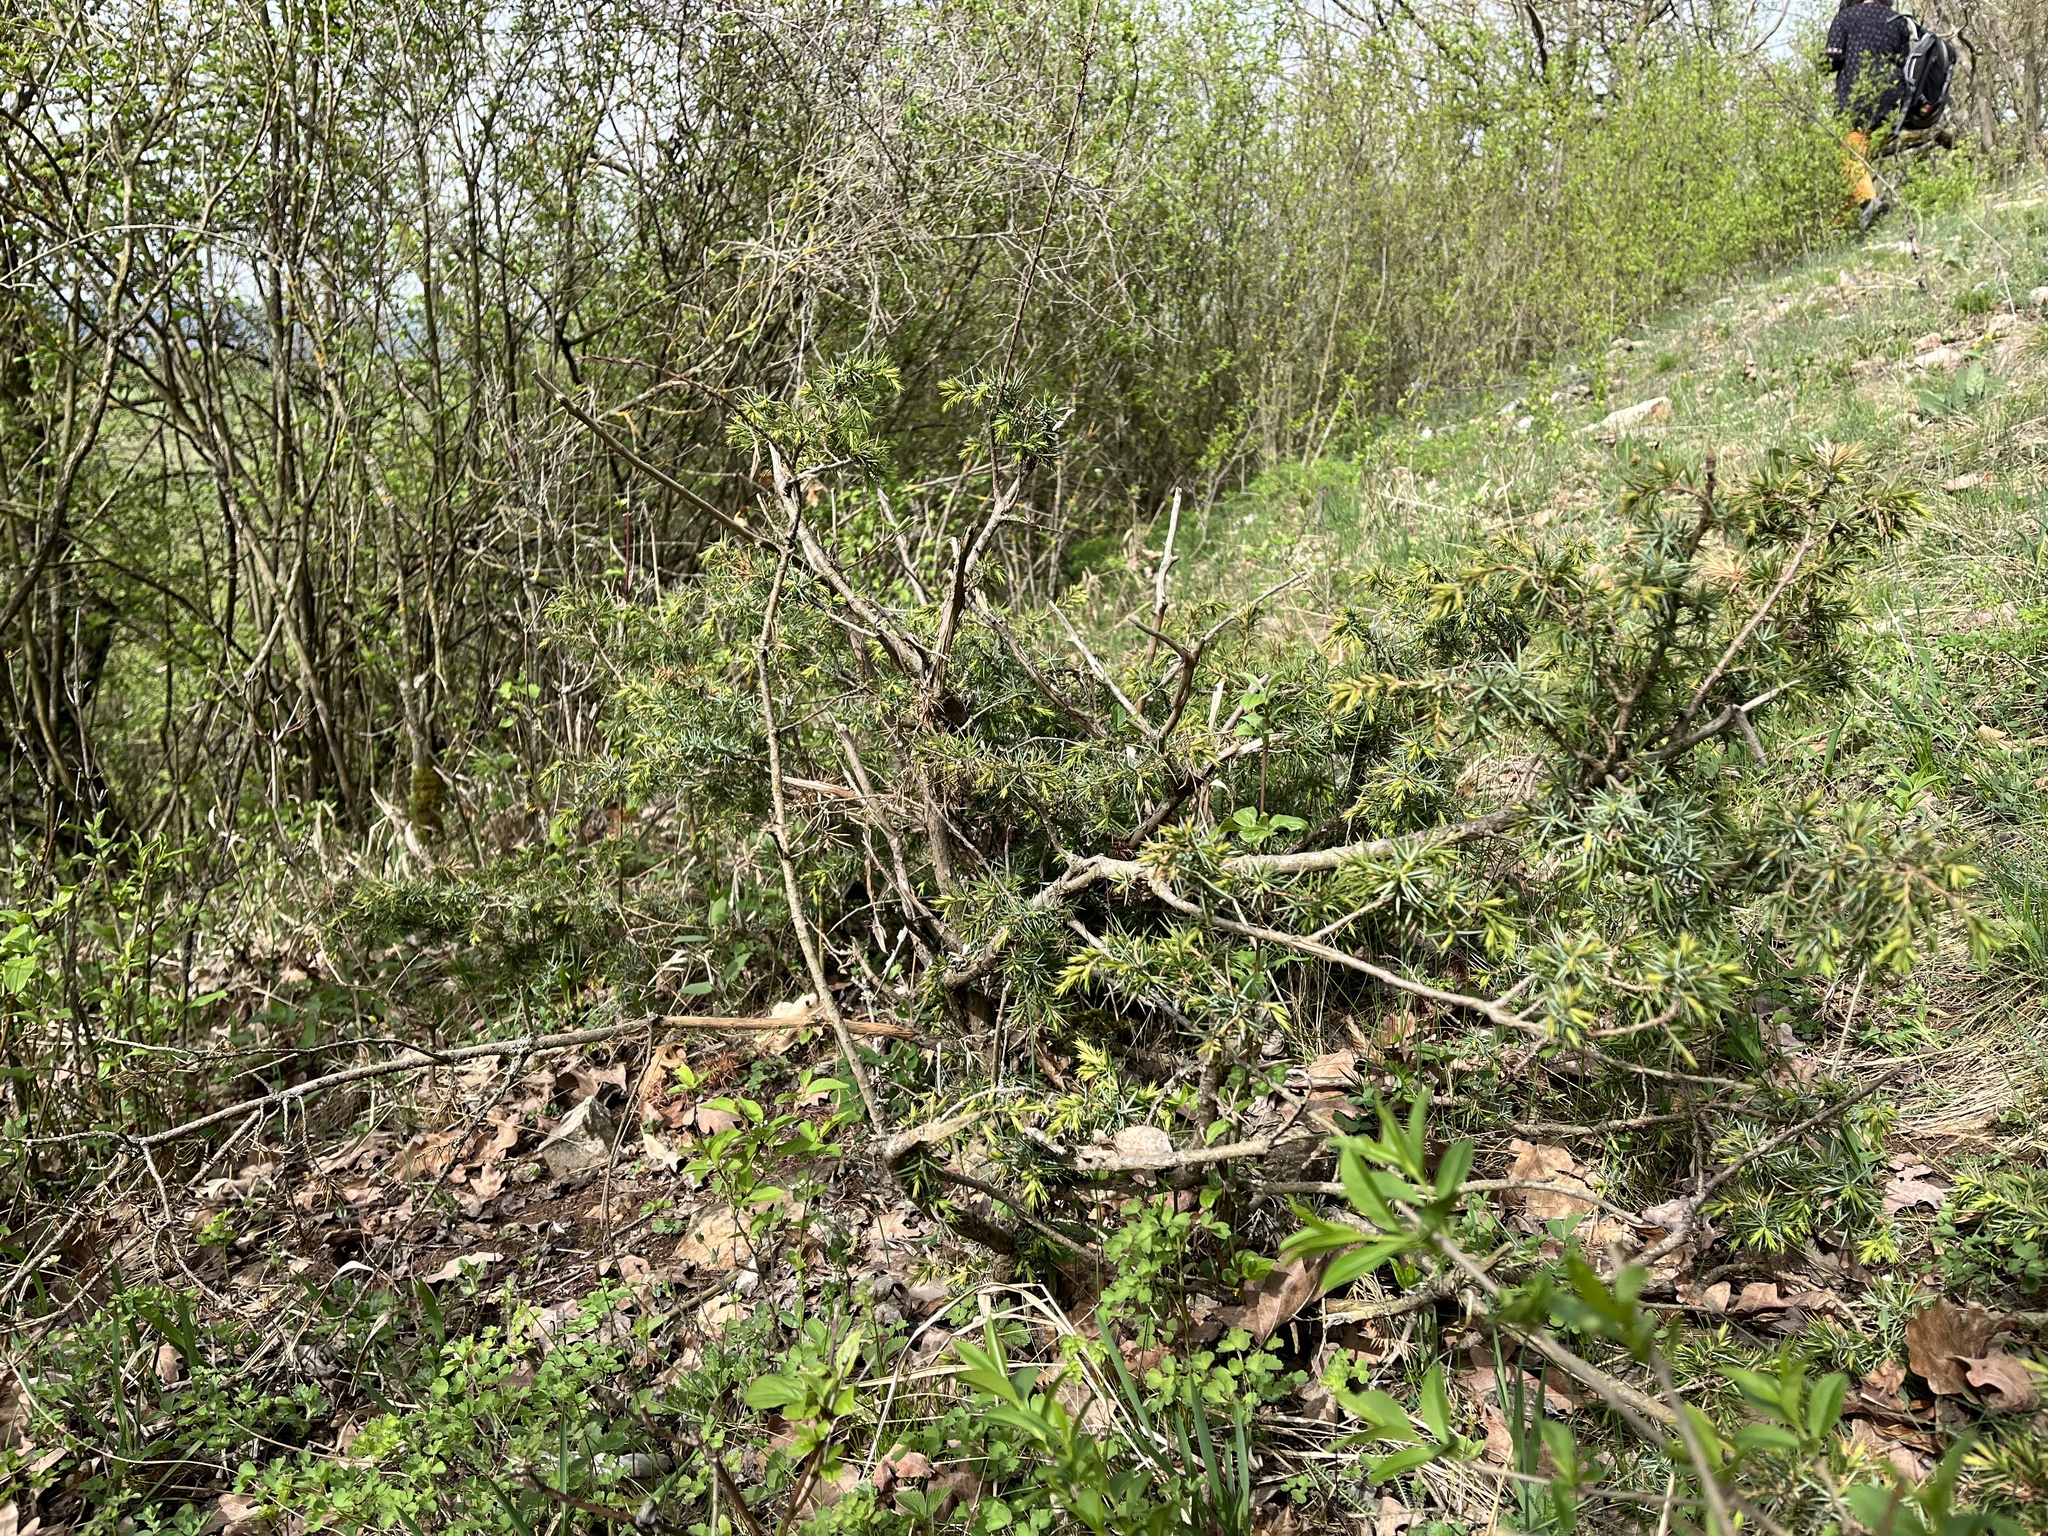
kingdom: Plantae
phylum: Tracheophyta
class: Pinopsida
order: Pinales
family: Cupressaceae
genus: Juniperus
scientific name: Juniperus communis
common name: Common juniper
